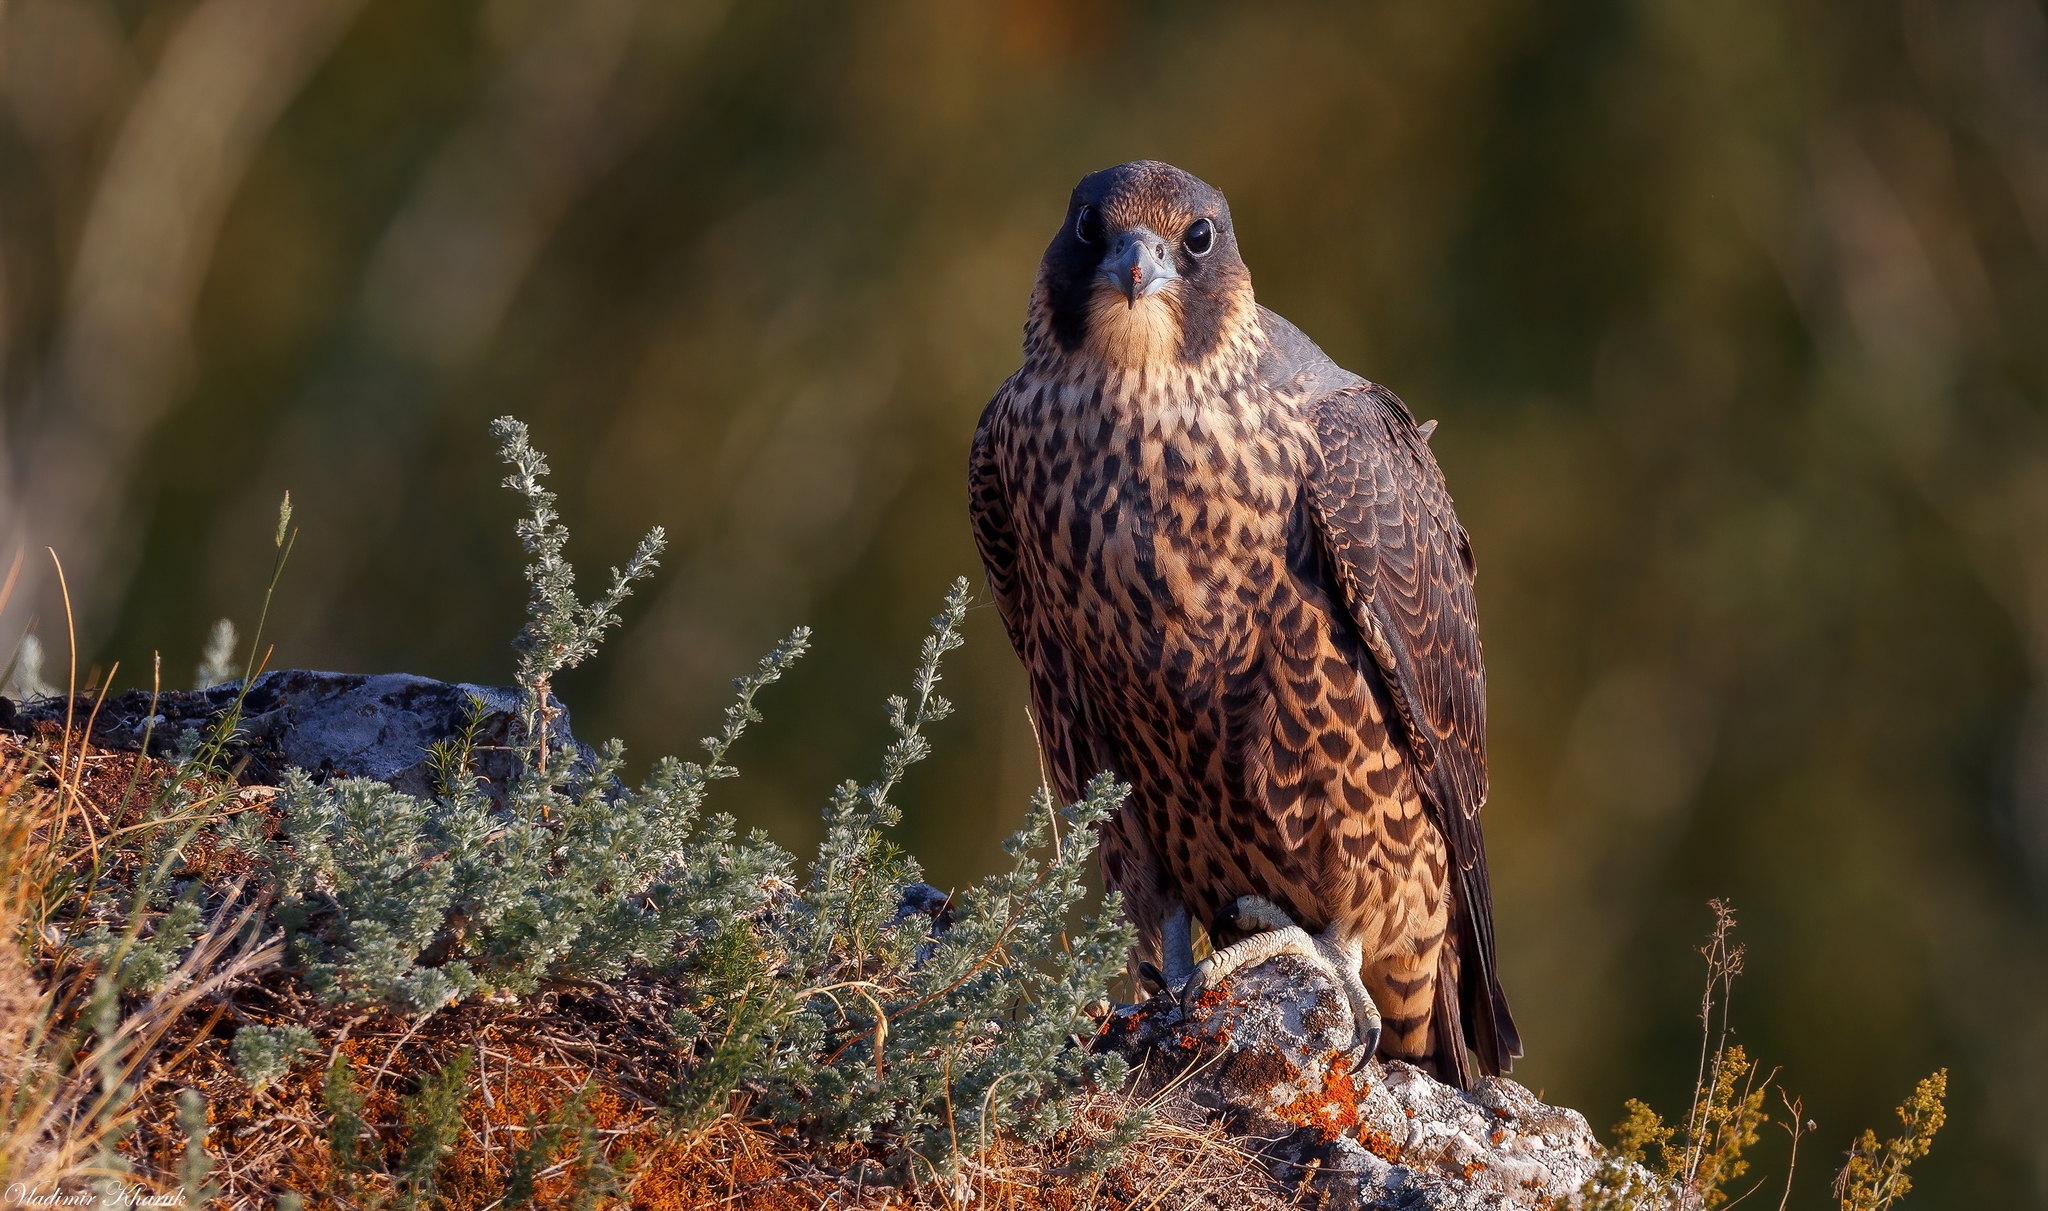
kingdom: Animalia
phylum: Chordata
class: Aves
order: Falconiformes
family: Falconidae
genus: Falco
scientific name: Falco peregrinus
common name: Peregrine falcon
